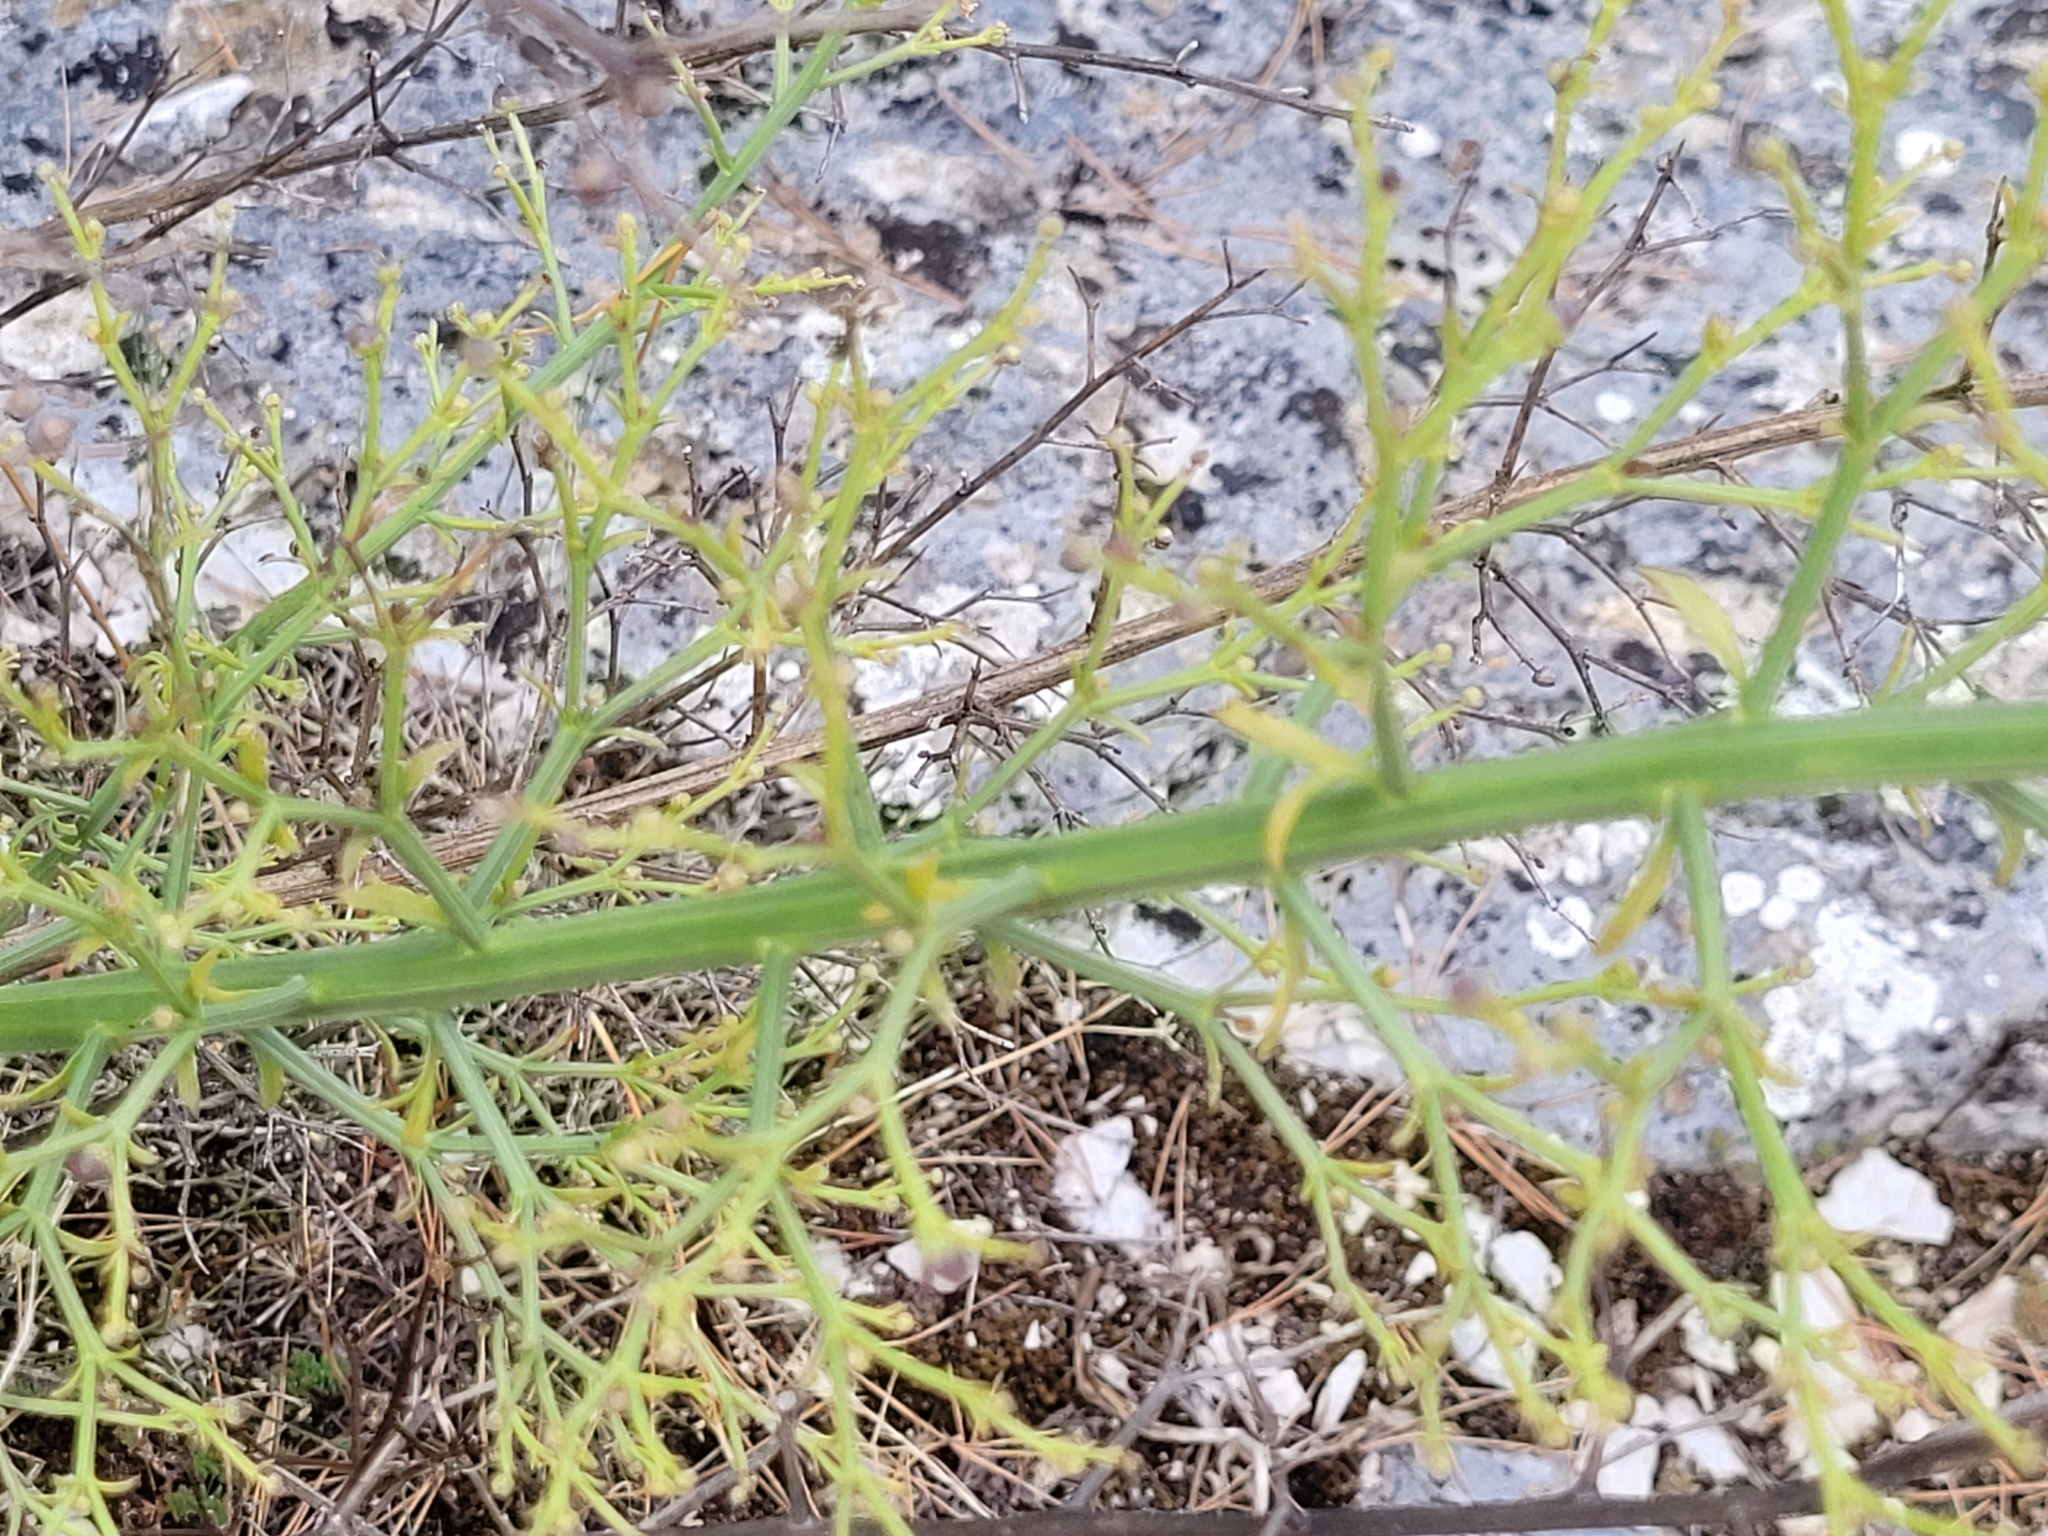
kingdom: Plantae
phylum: Tracheophyta
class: Magnoliopsida
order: Lamiales
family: Scrophulariaceae
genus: Scrophularia
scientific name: Scrophularia canina
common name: French figwort
